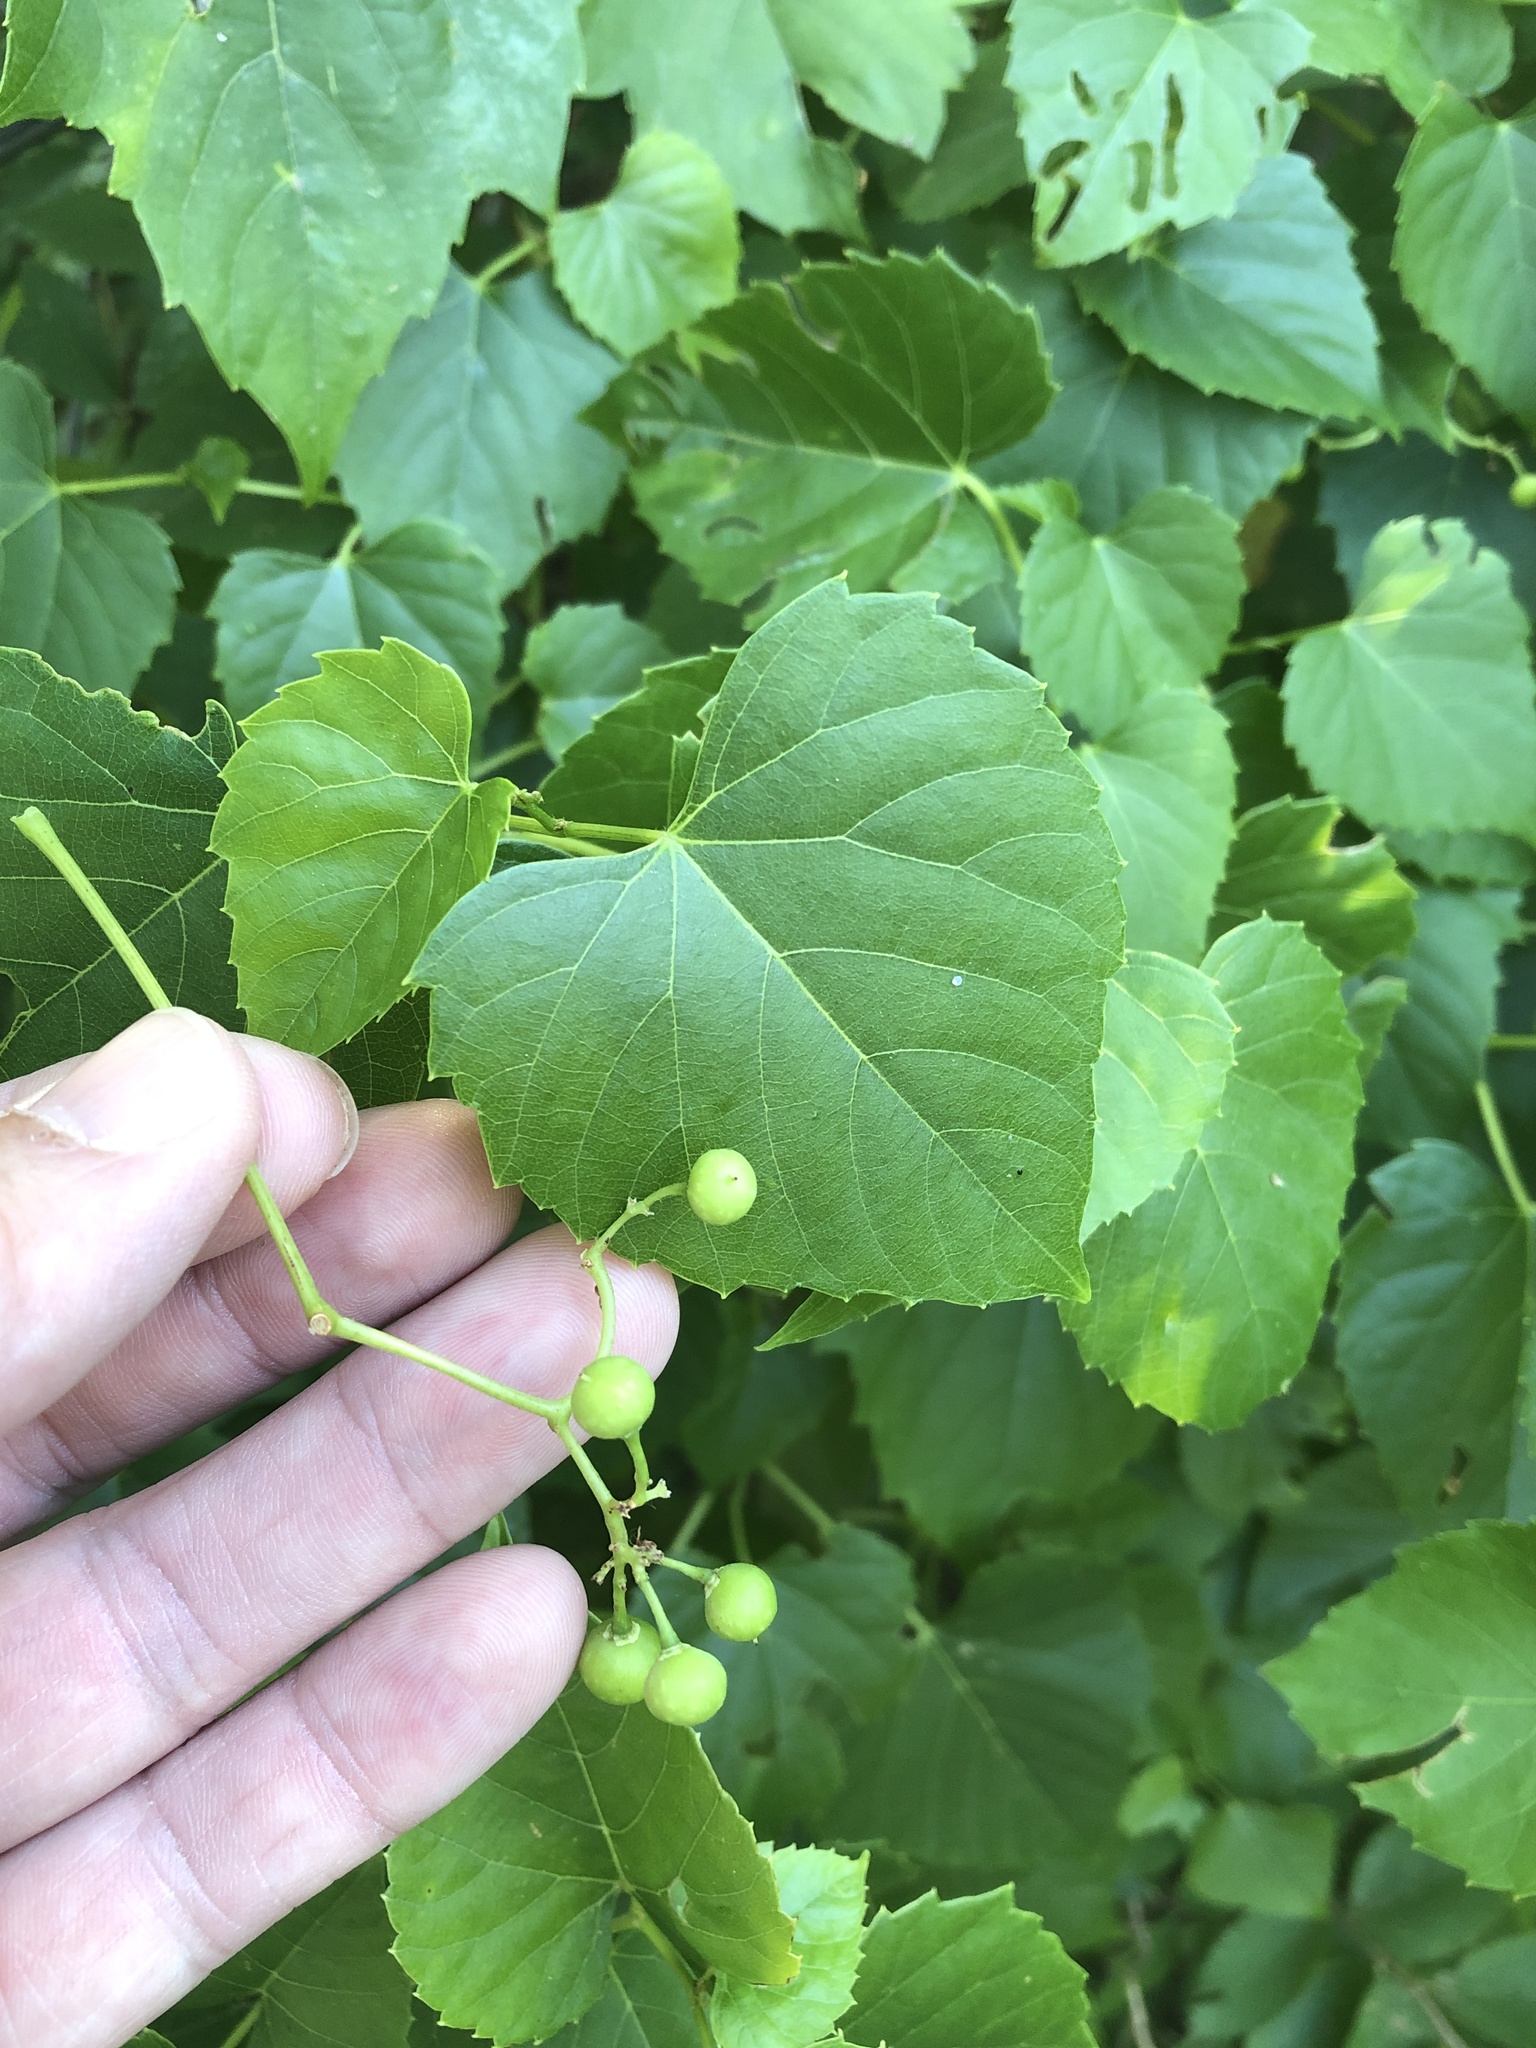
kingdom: Plantae
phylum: Tracheophyta
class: Magnoliopsida
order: Vitales
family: Vitaceae
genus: Ampelopsis
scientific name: Ampelopsis cordata
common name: Heart-leaf ampelopsis
